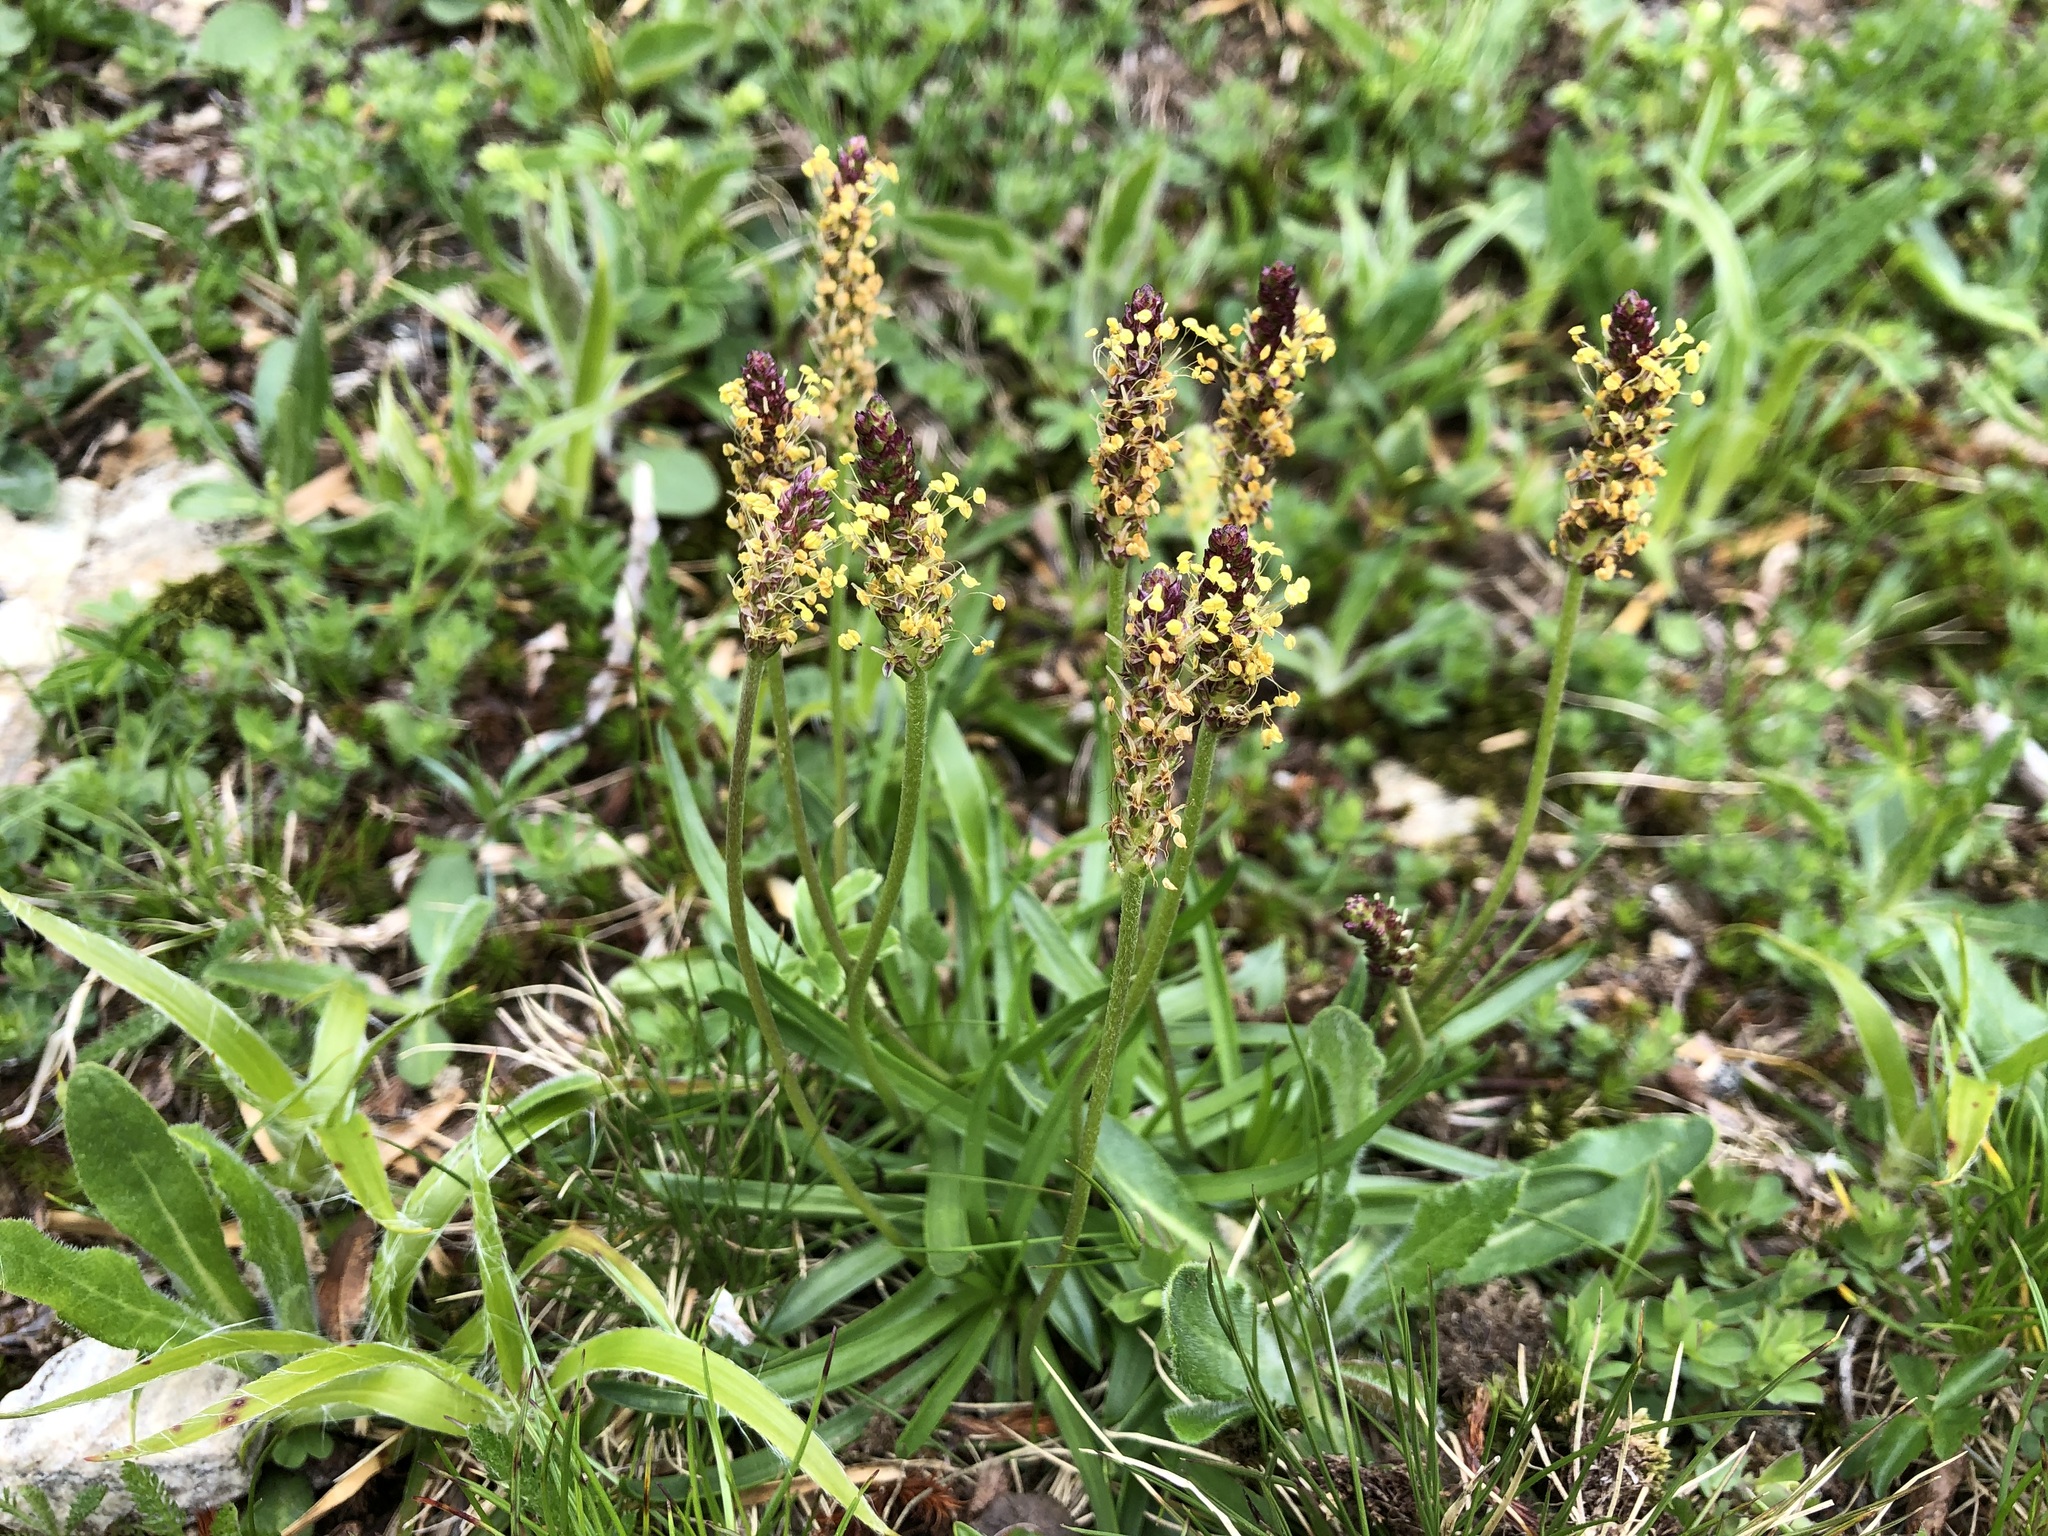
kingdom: Plantae
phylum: Tracheophyta
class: Magnoliopsida
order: Lamiales
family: Plantaginaceae
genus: Plantago
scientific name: Plantago alpina
